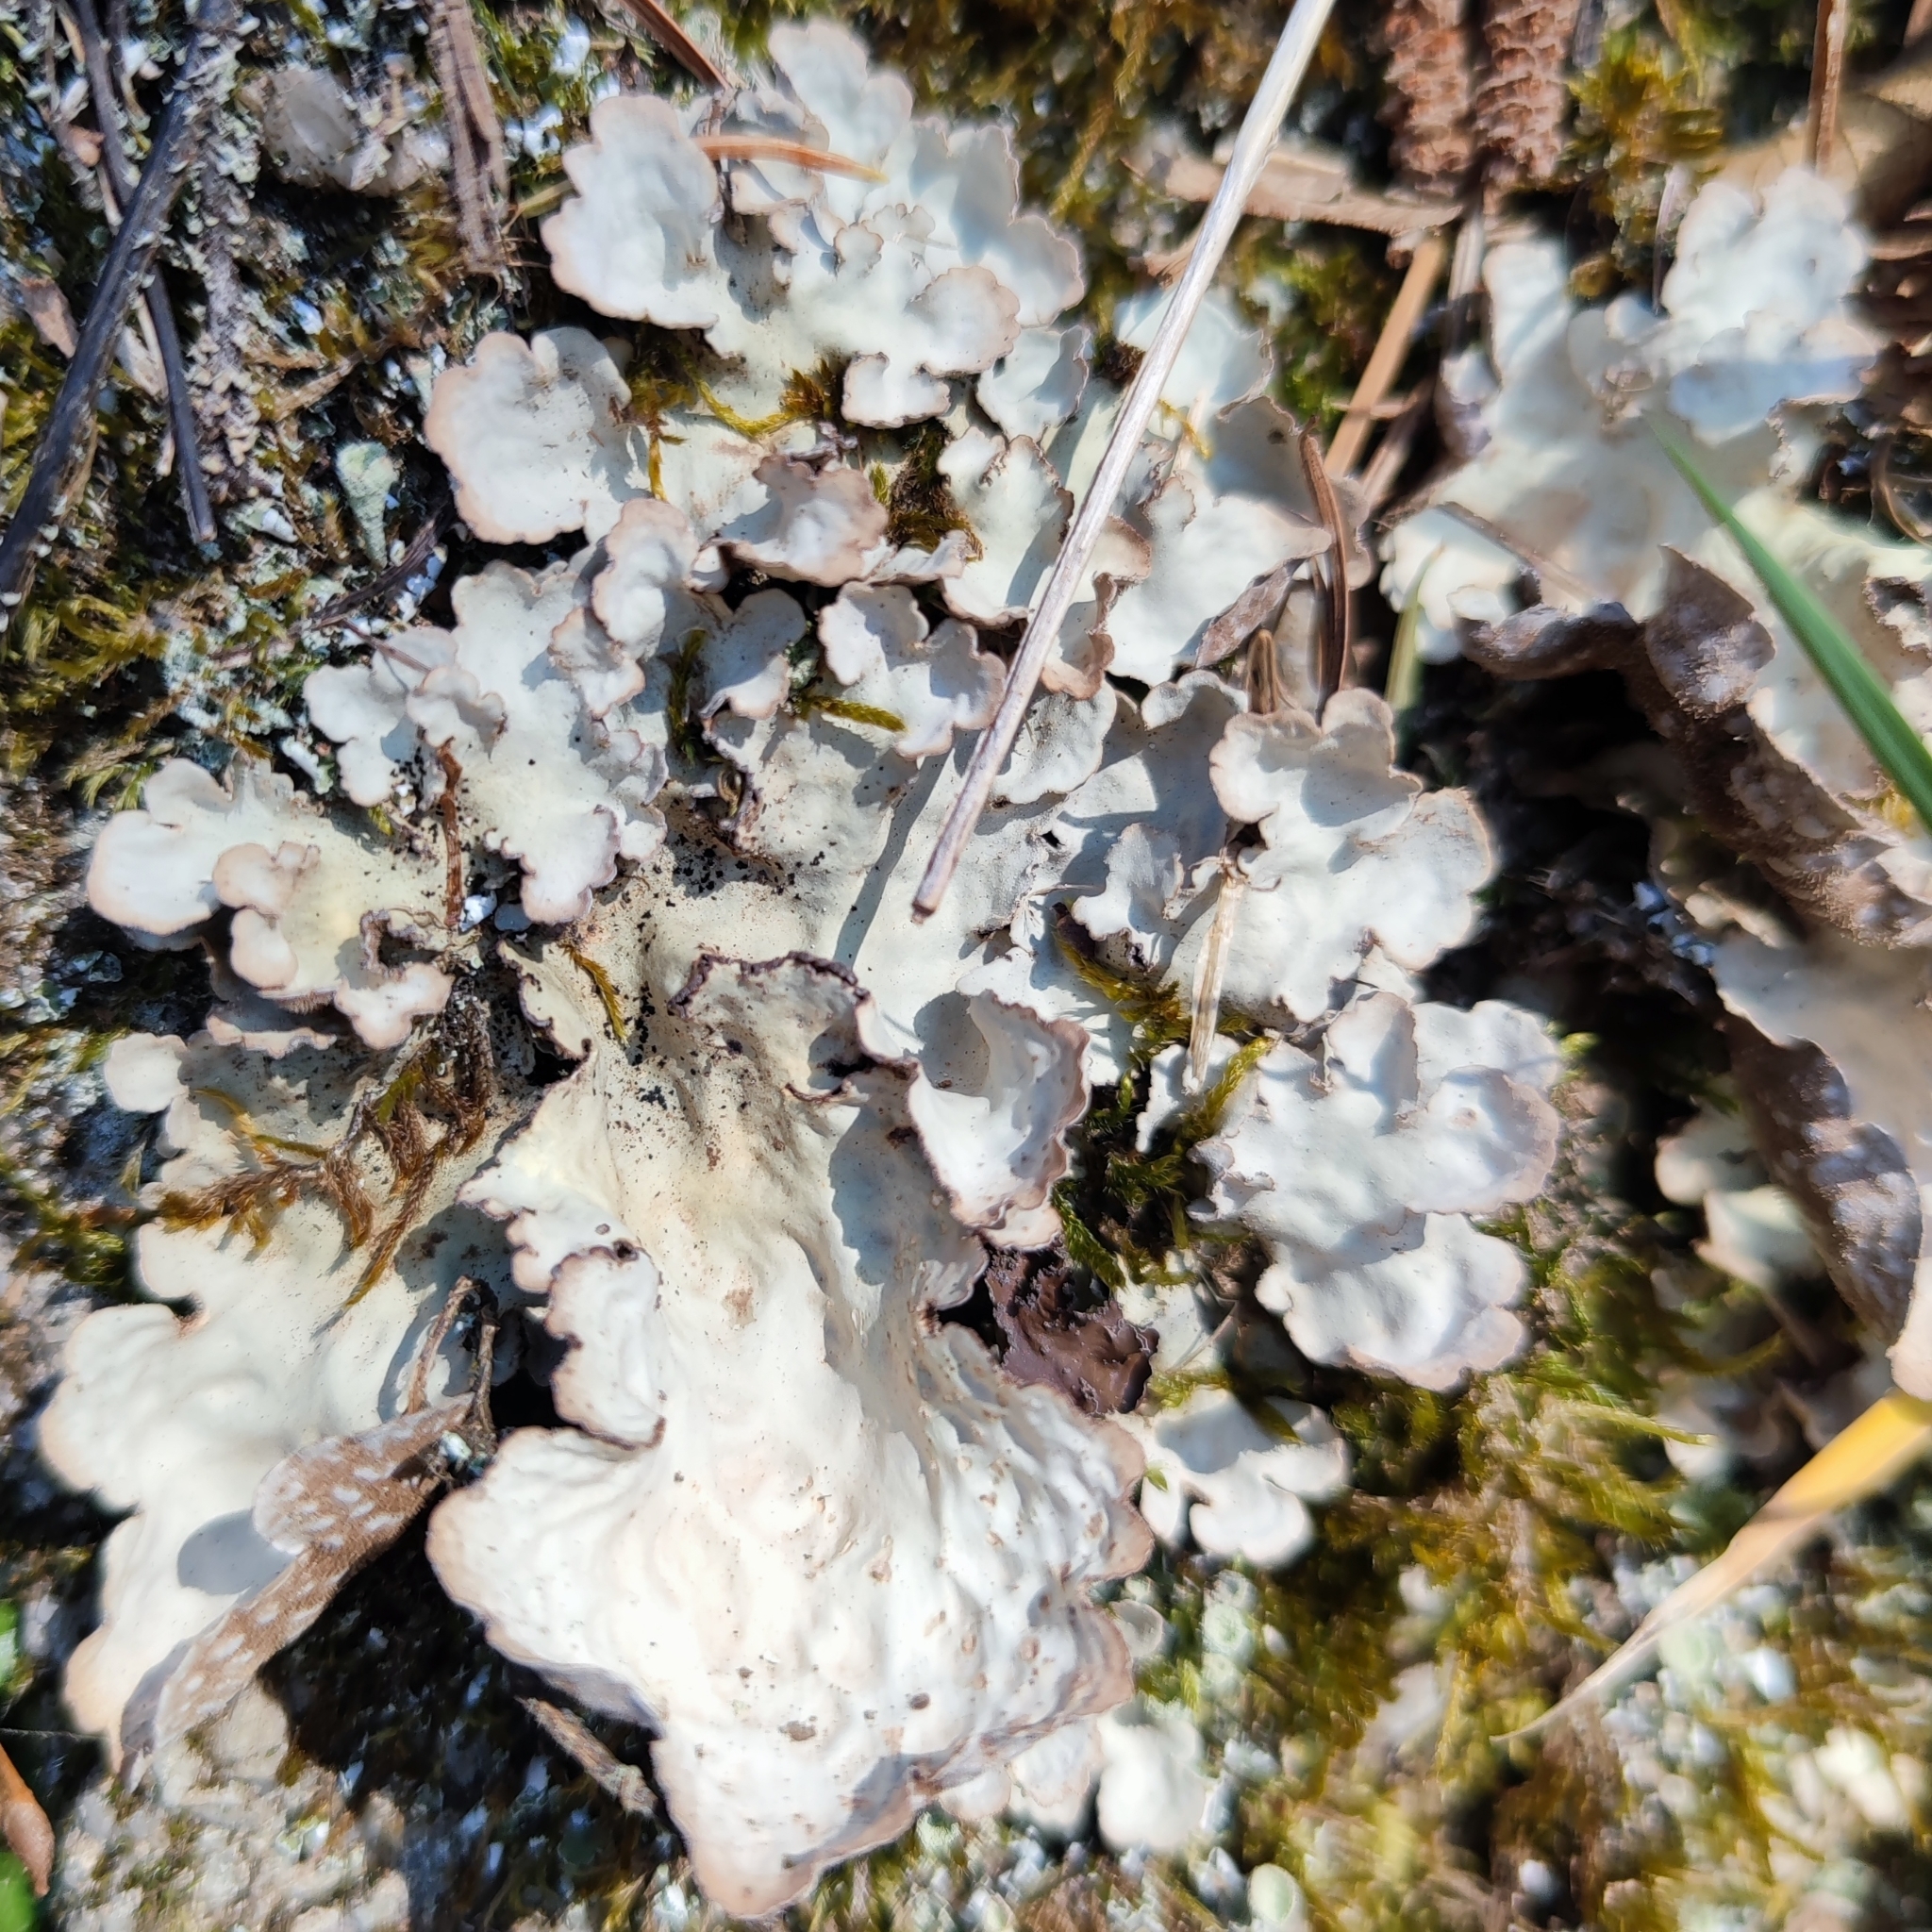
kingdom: Fungi
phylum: Ascomycota
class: Lecanoromycetes
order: Peltigerales
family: Lobariaceae
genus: Lobarina
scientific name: Lobarina scrobiculata
